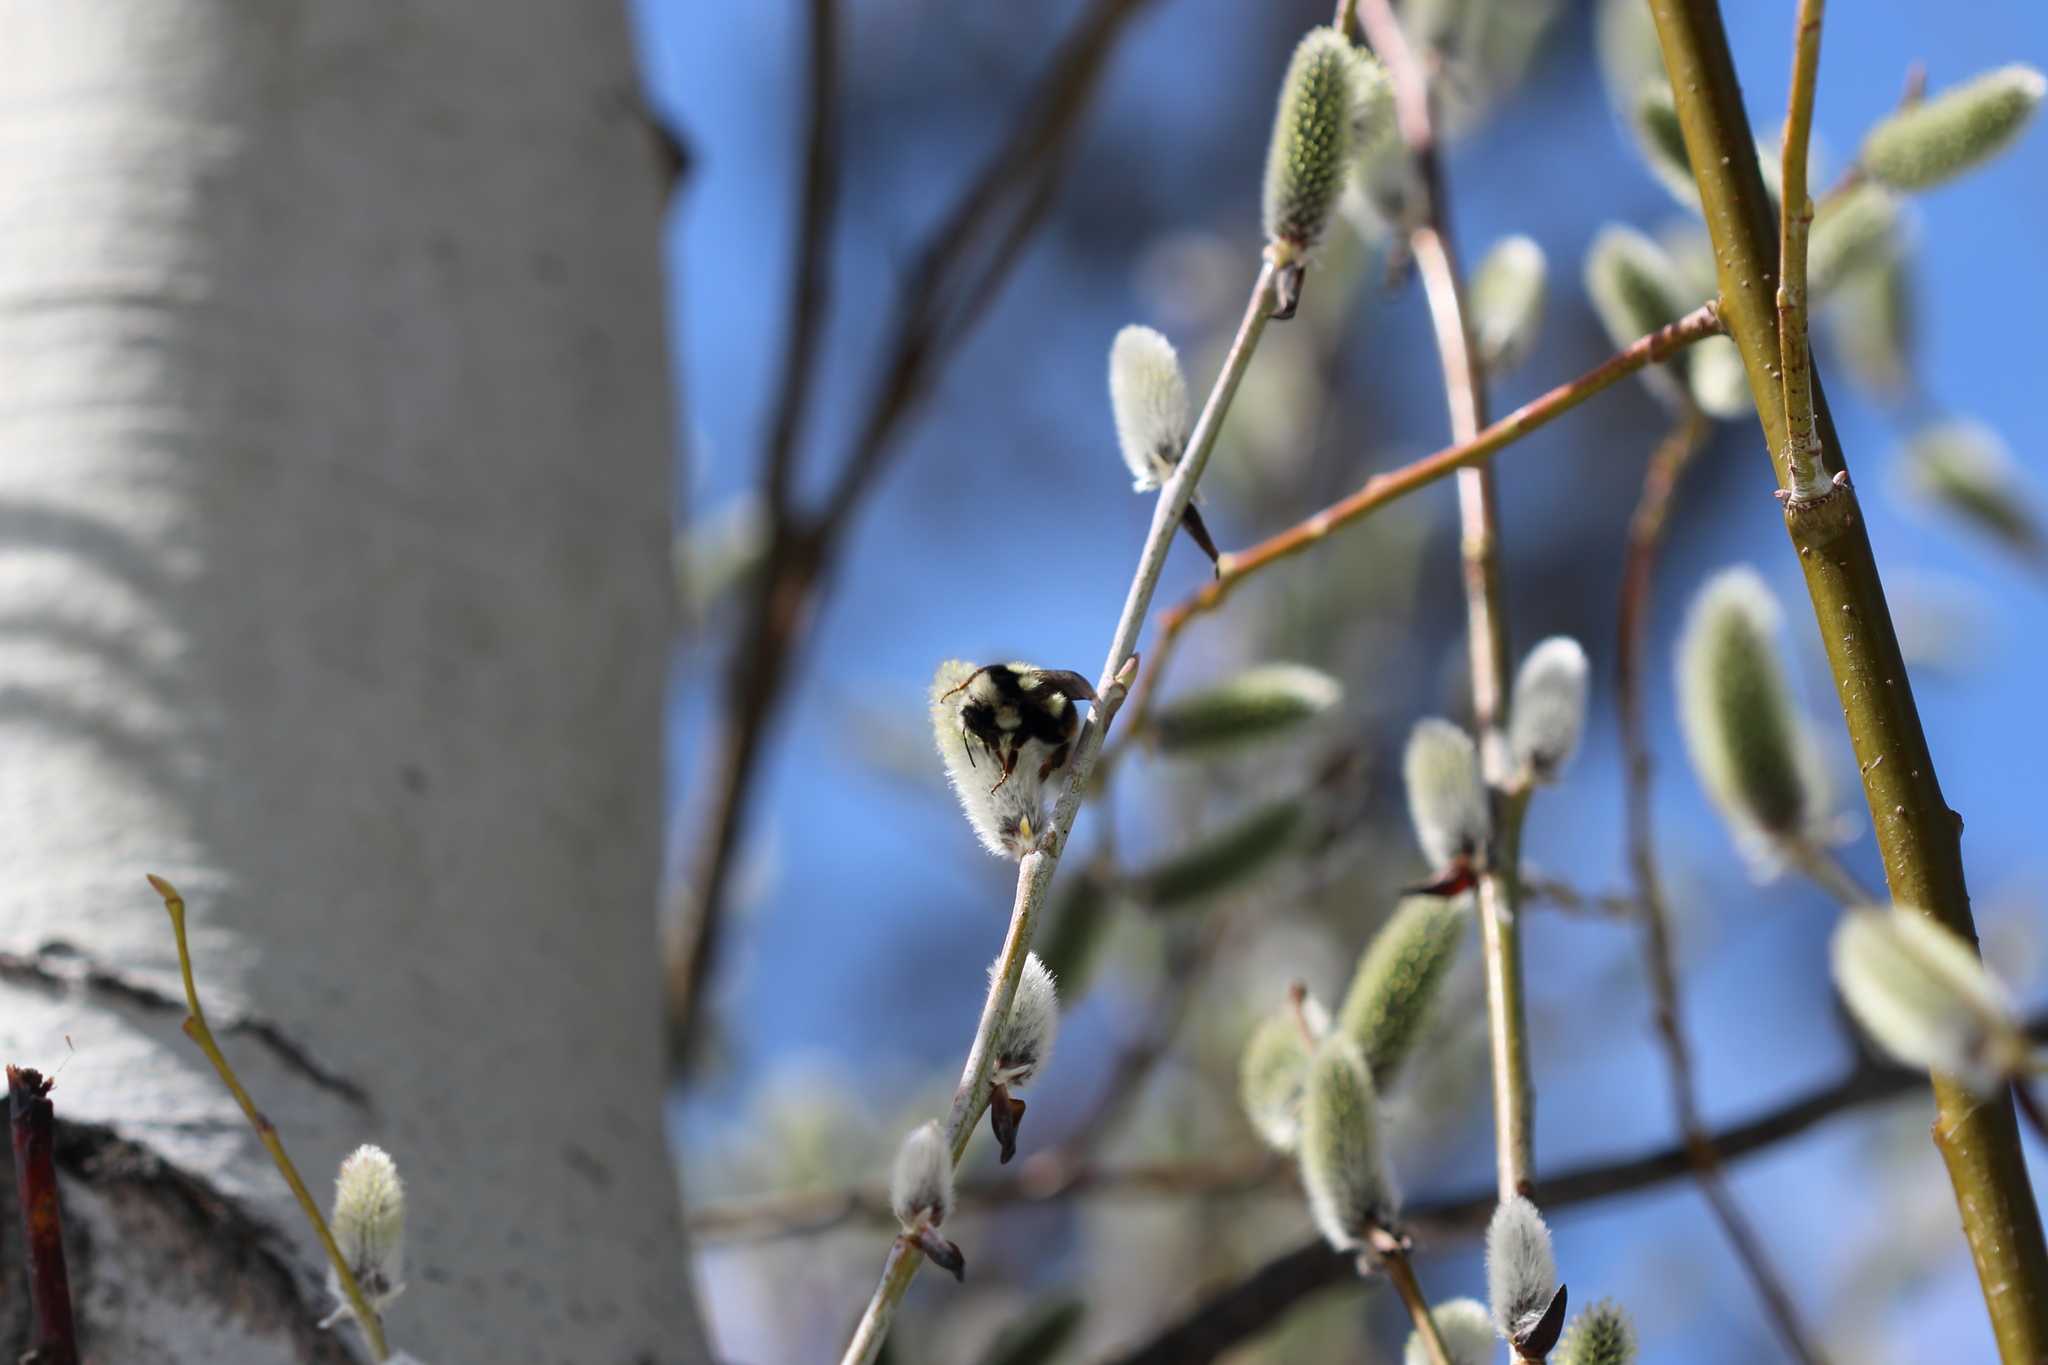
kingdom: Animalia
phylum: Arthropoda
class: Insecta
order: Hymenoptera
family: Apidae
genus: Bombus
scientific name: Bombus vancouverensis
